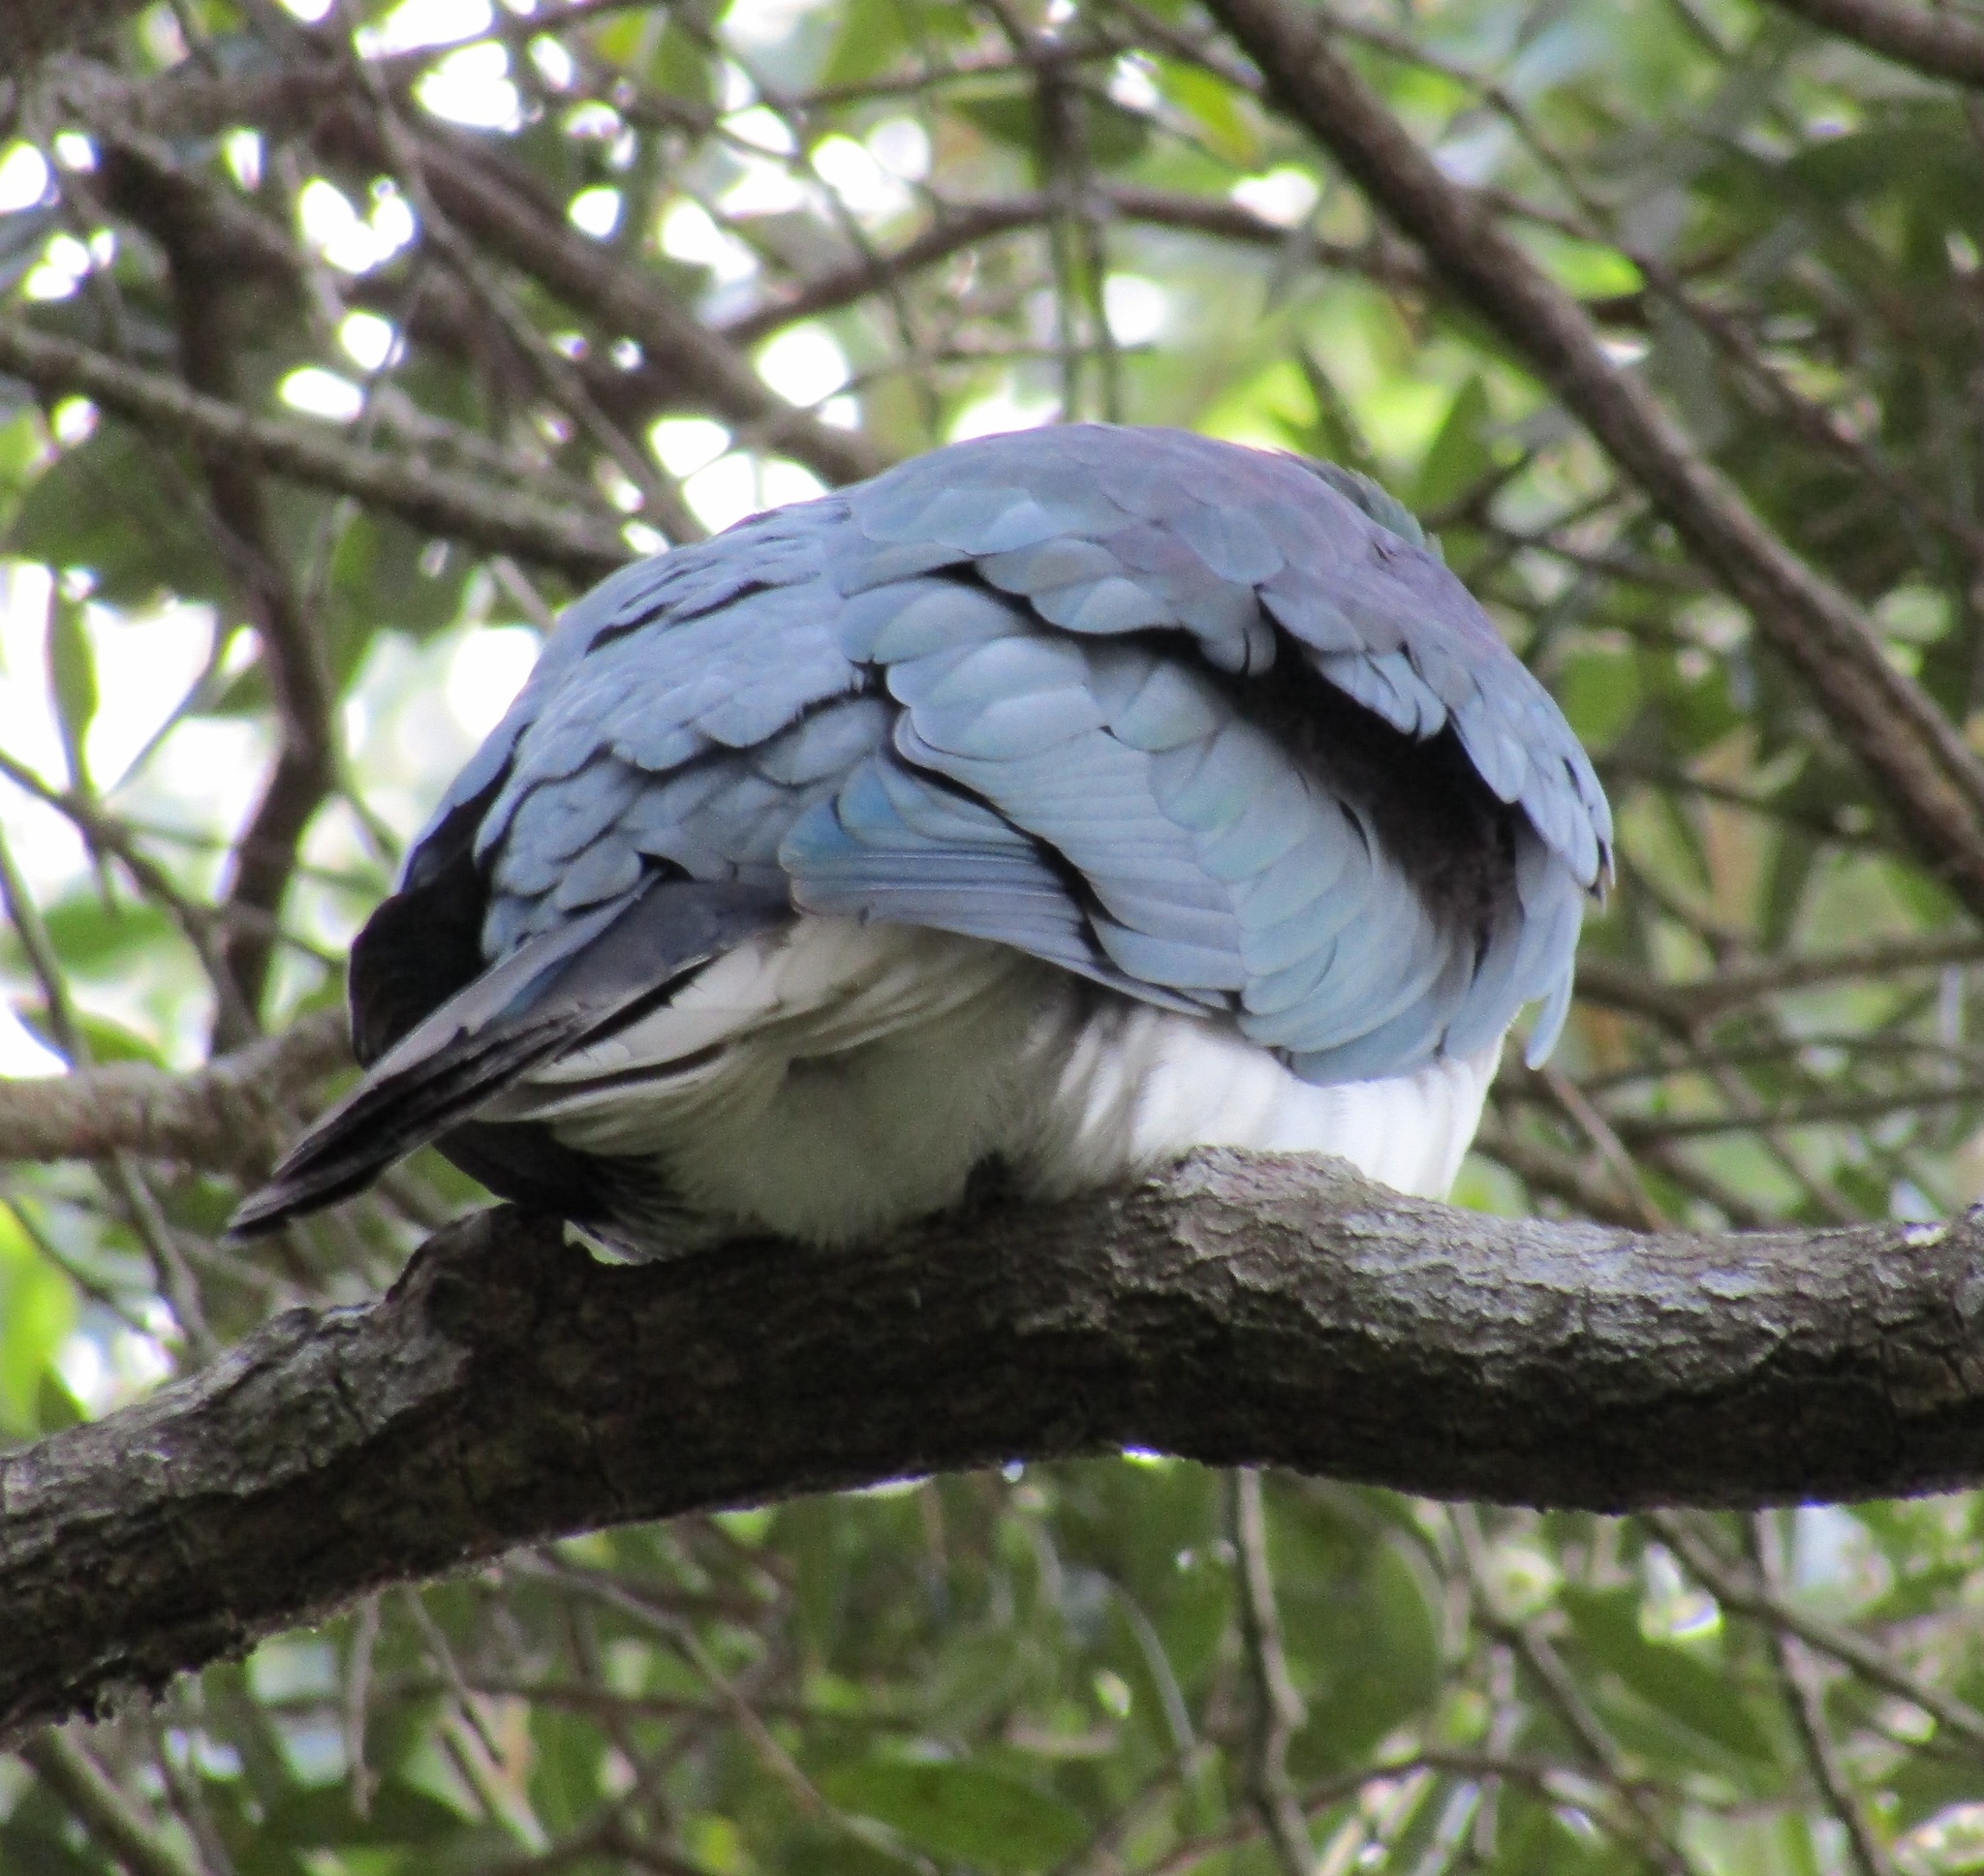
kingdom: Animalia
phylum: Chordata
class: Aves
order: Columbiformes
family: Columbidae
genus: Hemiphaga
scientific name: Hemiphaga novaeseelandiae
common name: New zealand pigeon
